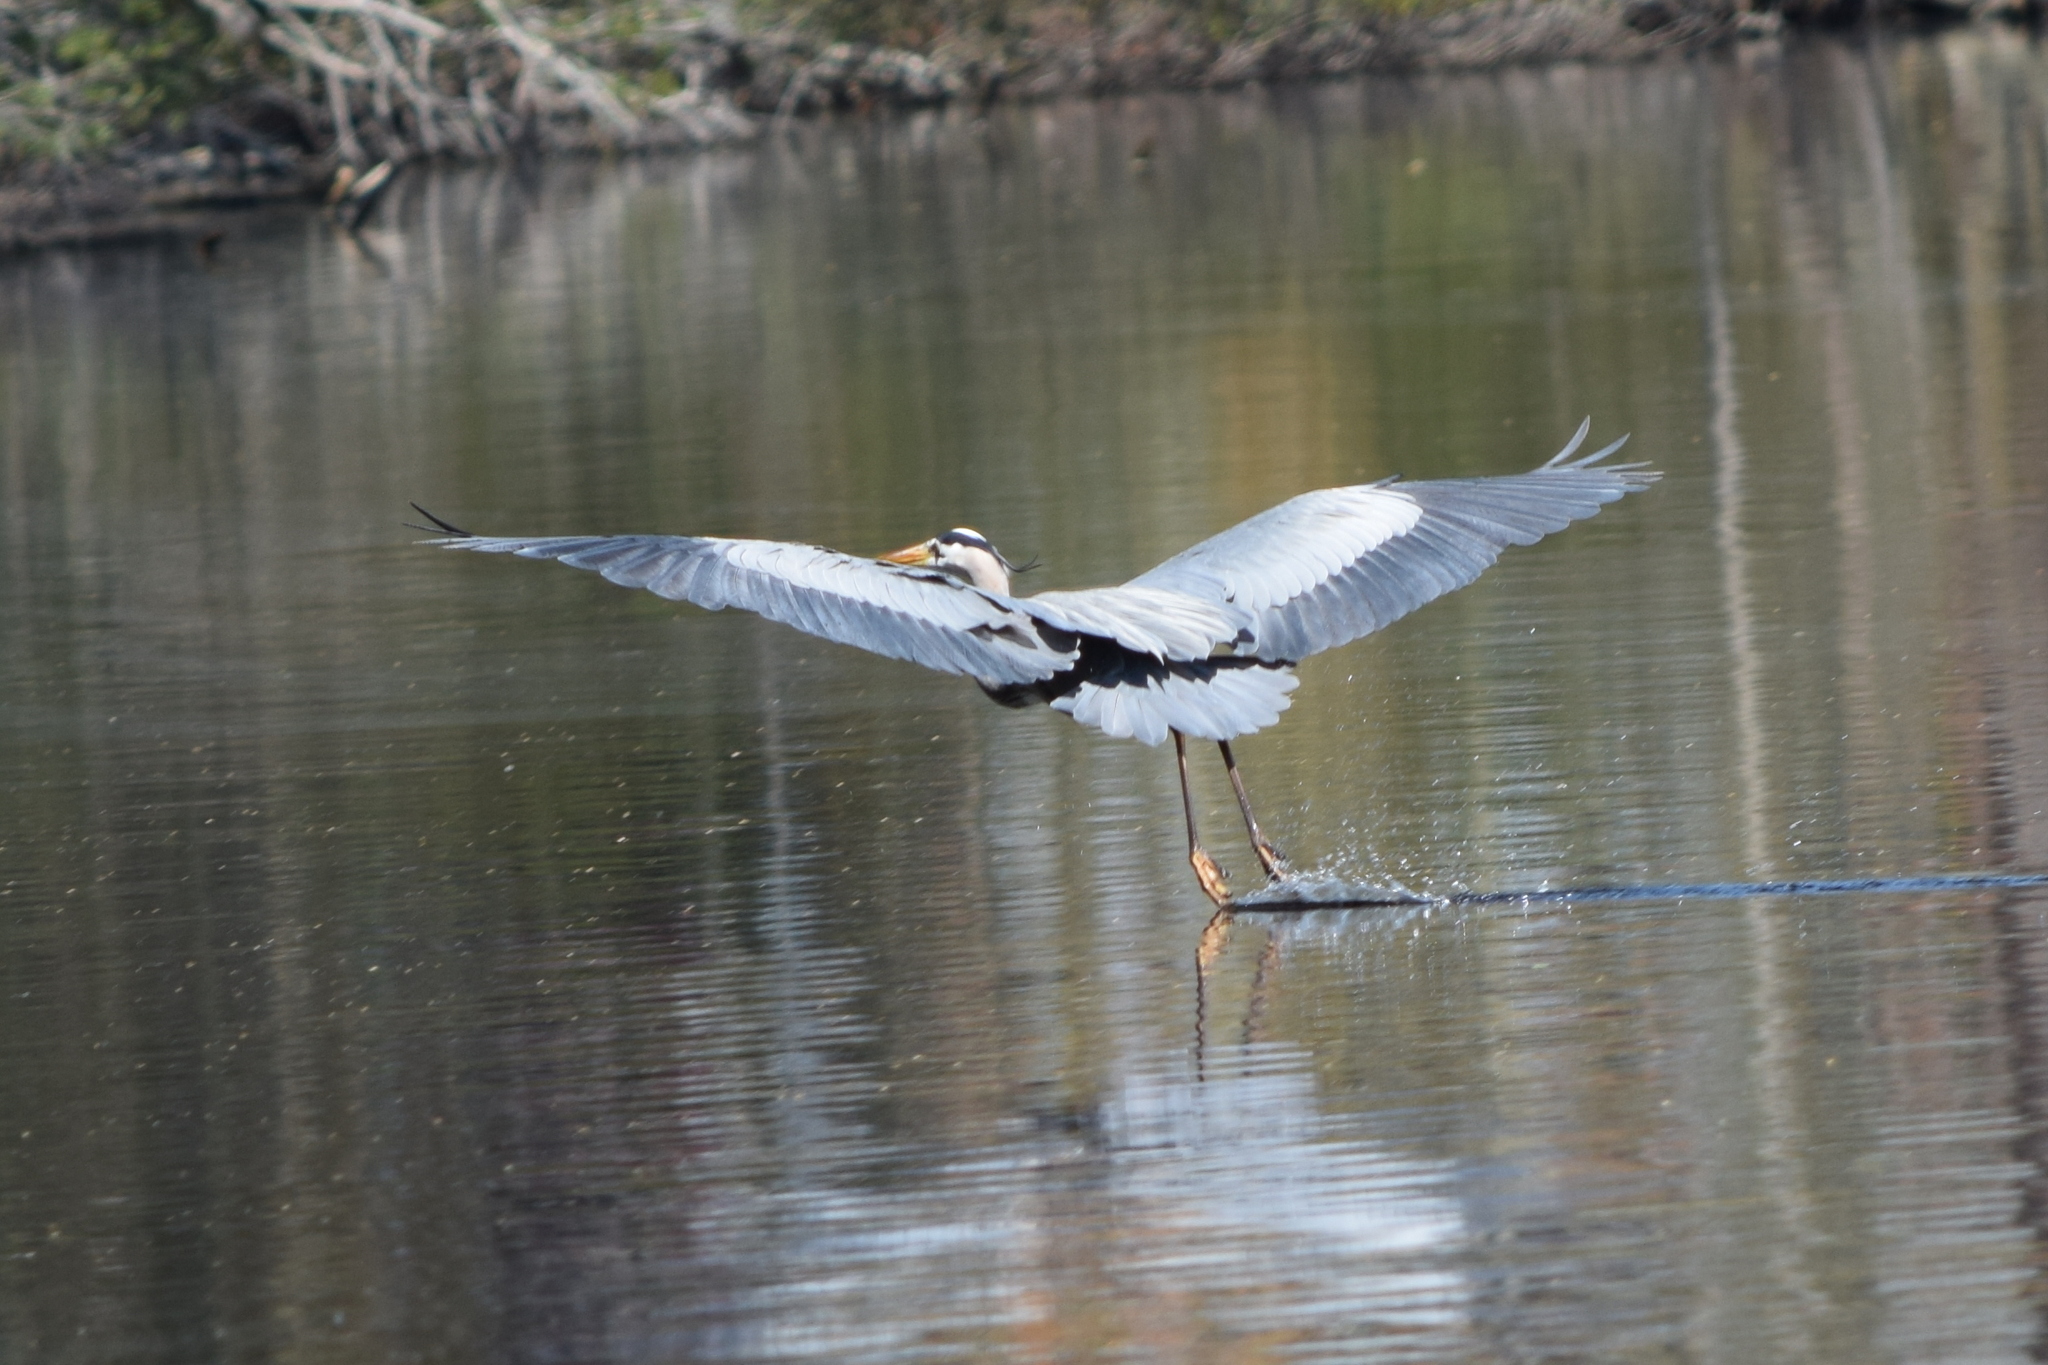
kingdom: Animalia
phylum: Chordata
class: Aves
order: Pelecaniformes
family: Ardeidae
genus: Ardea
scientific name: Ardea herodias
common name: Great blue heron
